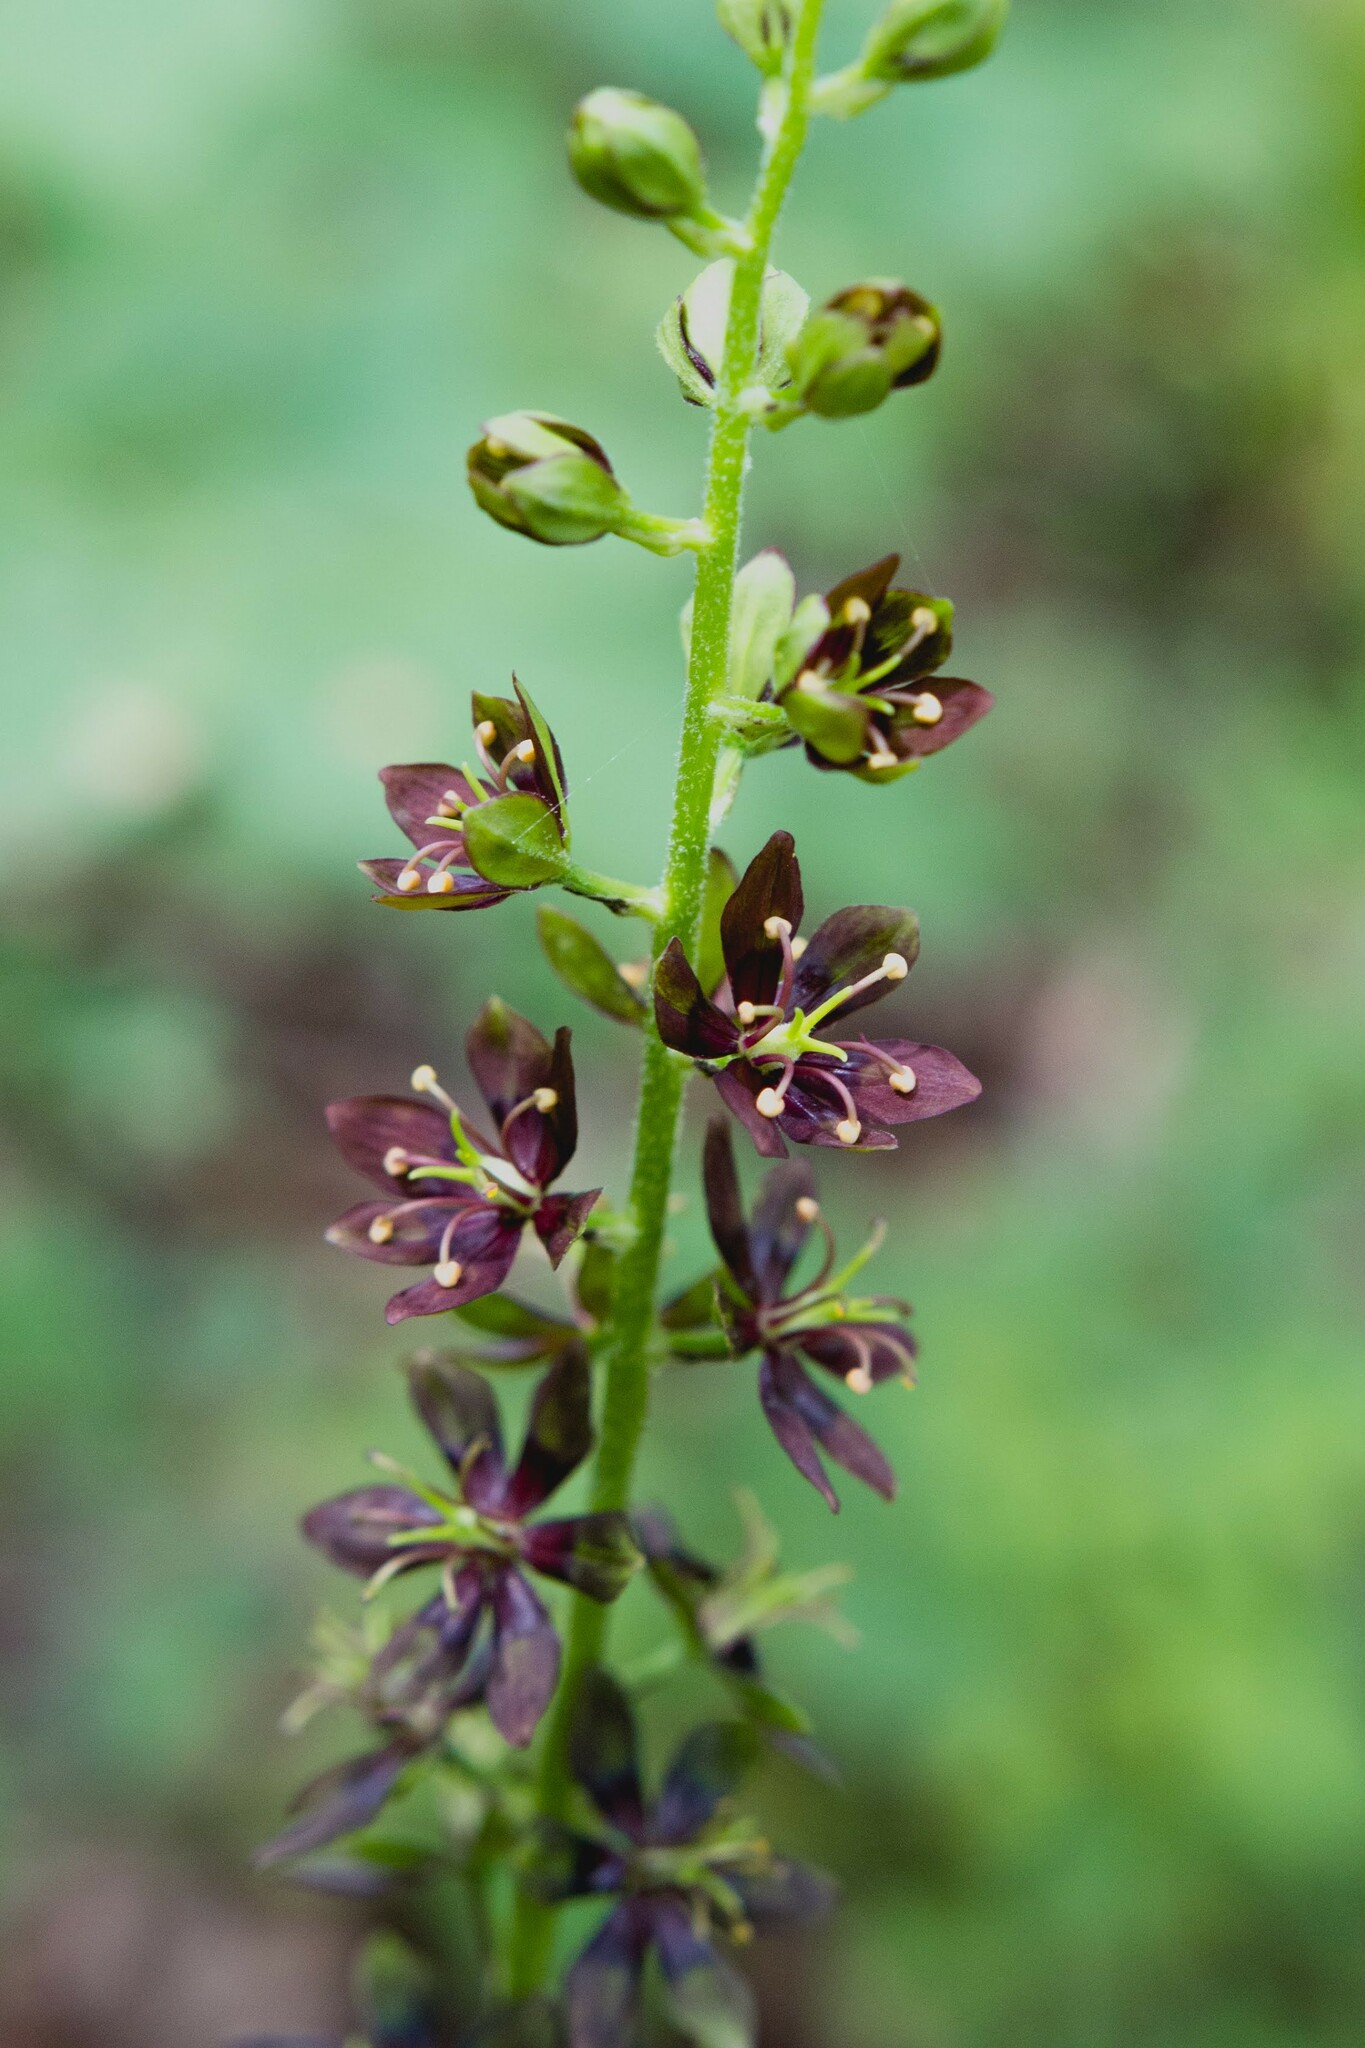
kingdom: Plantae
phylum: Tracheophyta
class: Liliopsida
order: Liliales
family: Melanthiaceae
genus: Veratrum
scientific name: Veratrum woodii
